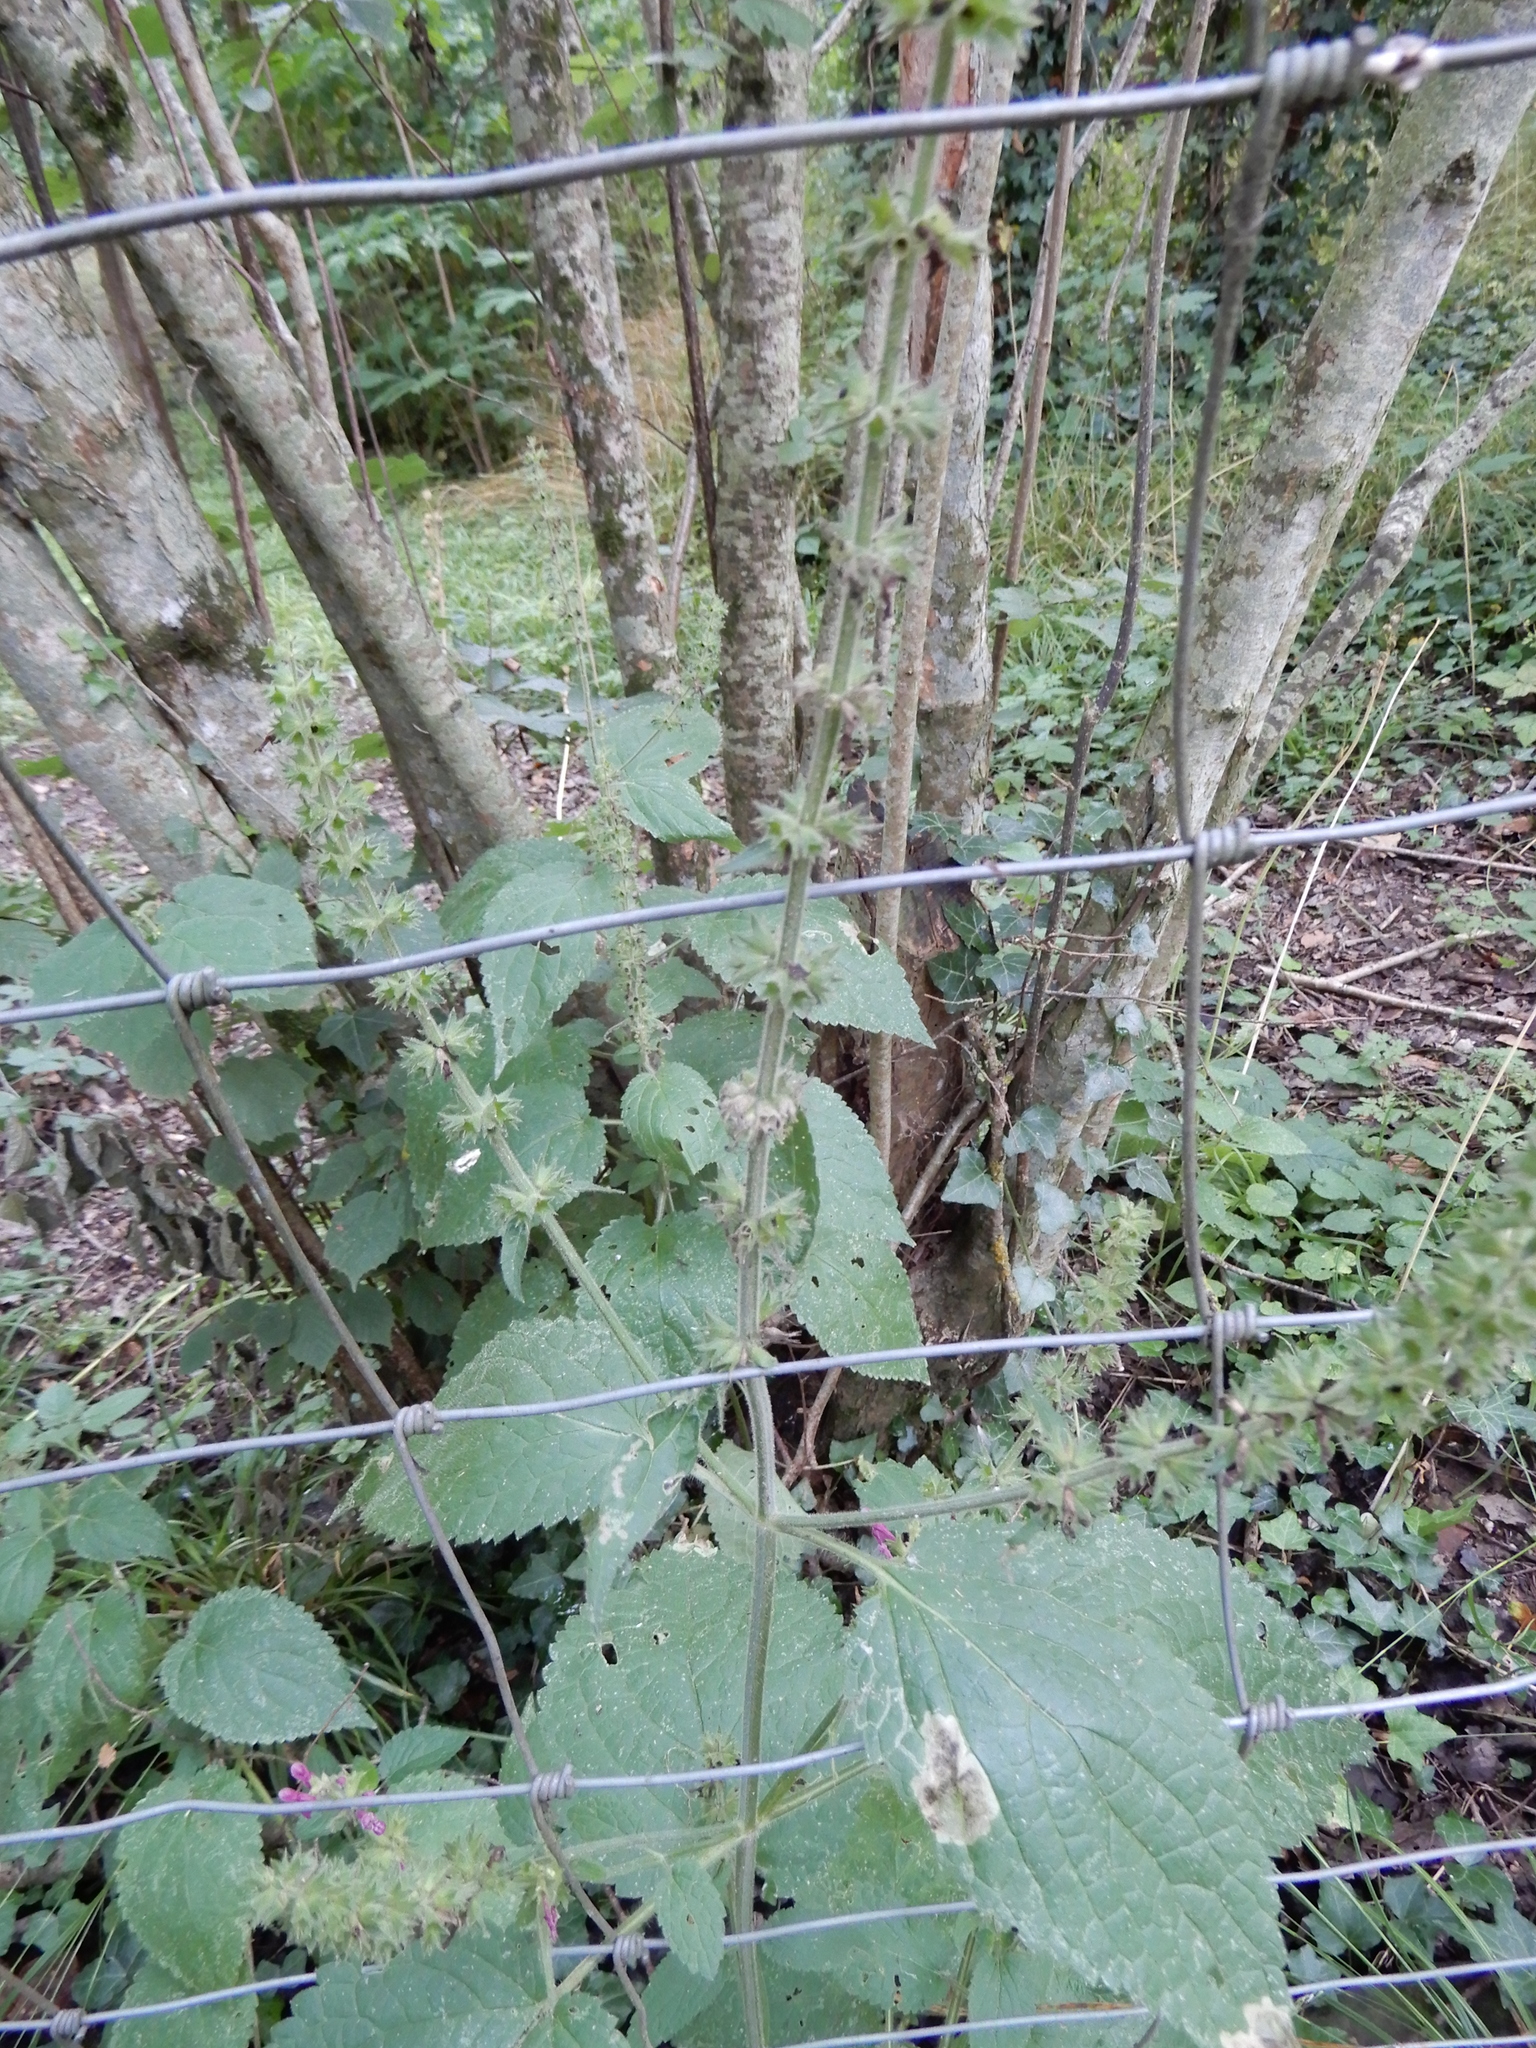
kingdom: Plantae
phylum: Tracheophyta
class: Magnoliopsida
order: Lamiales
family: Lamiaceae
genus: Stachys
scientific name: Stachys sylvatica
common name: Hedge woundwort
